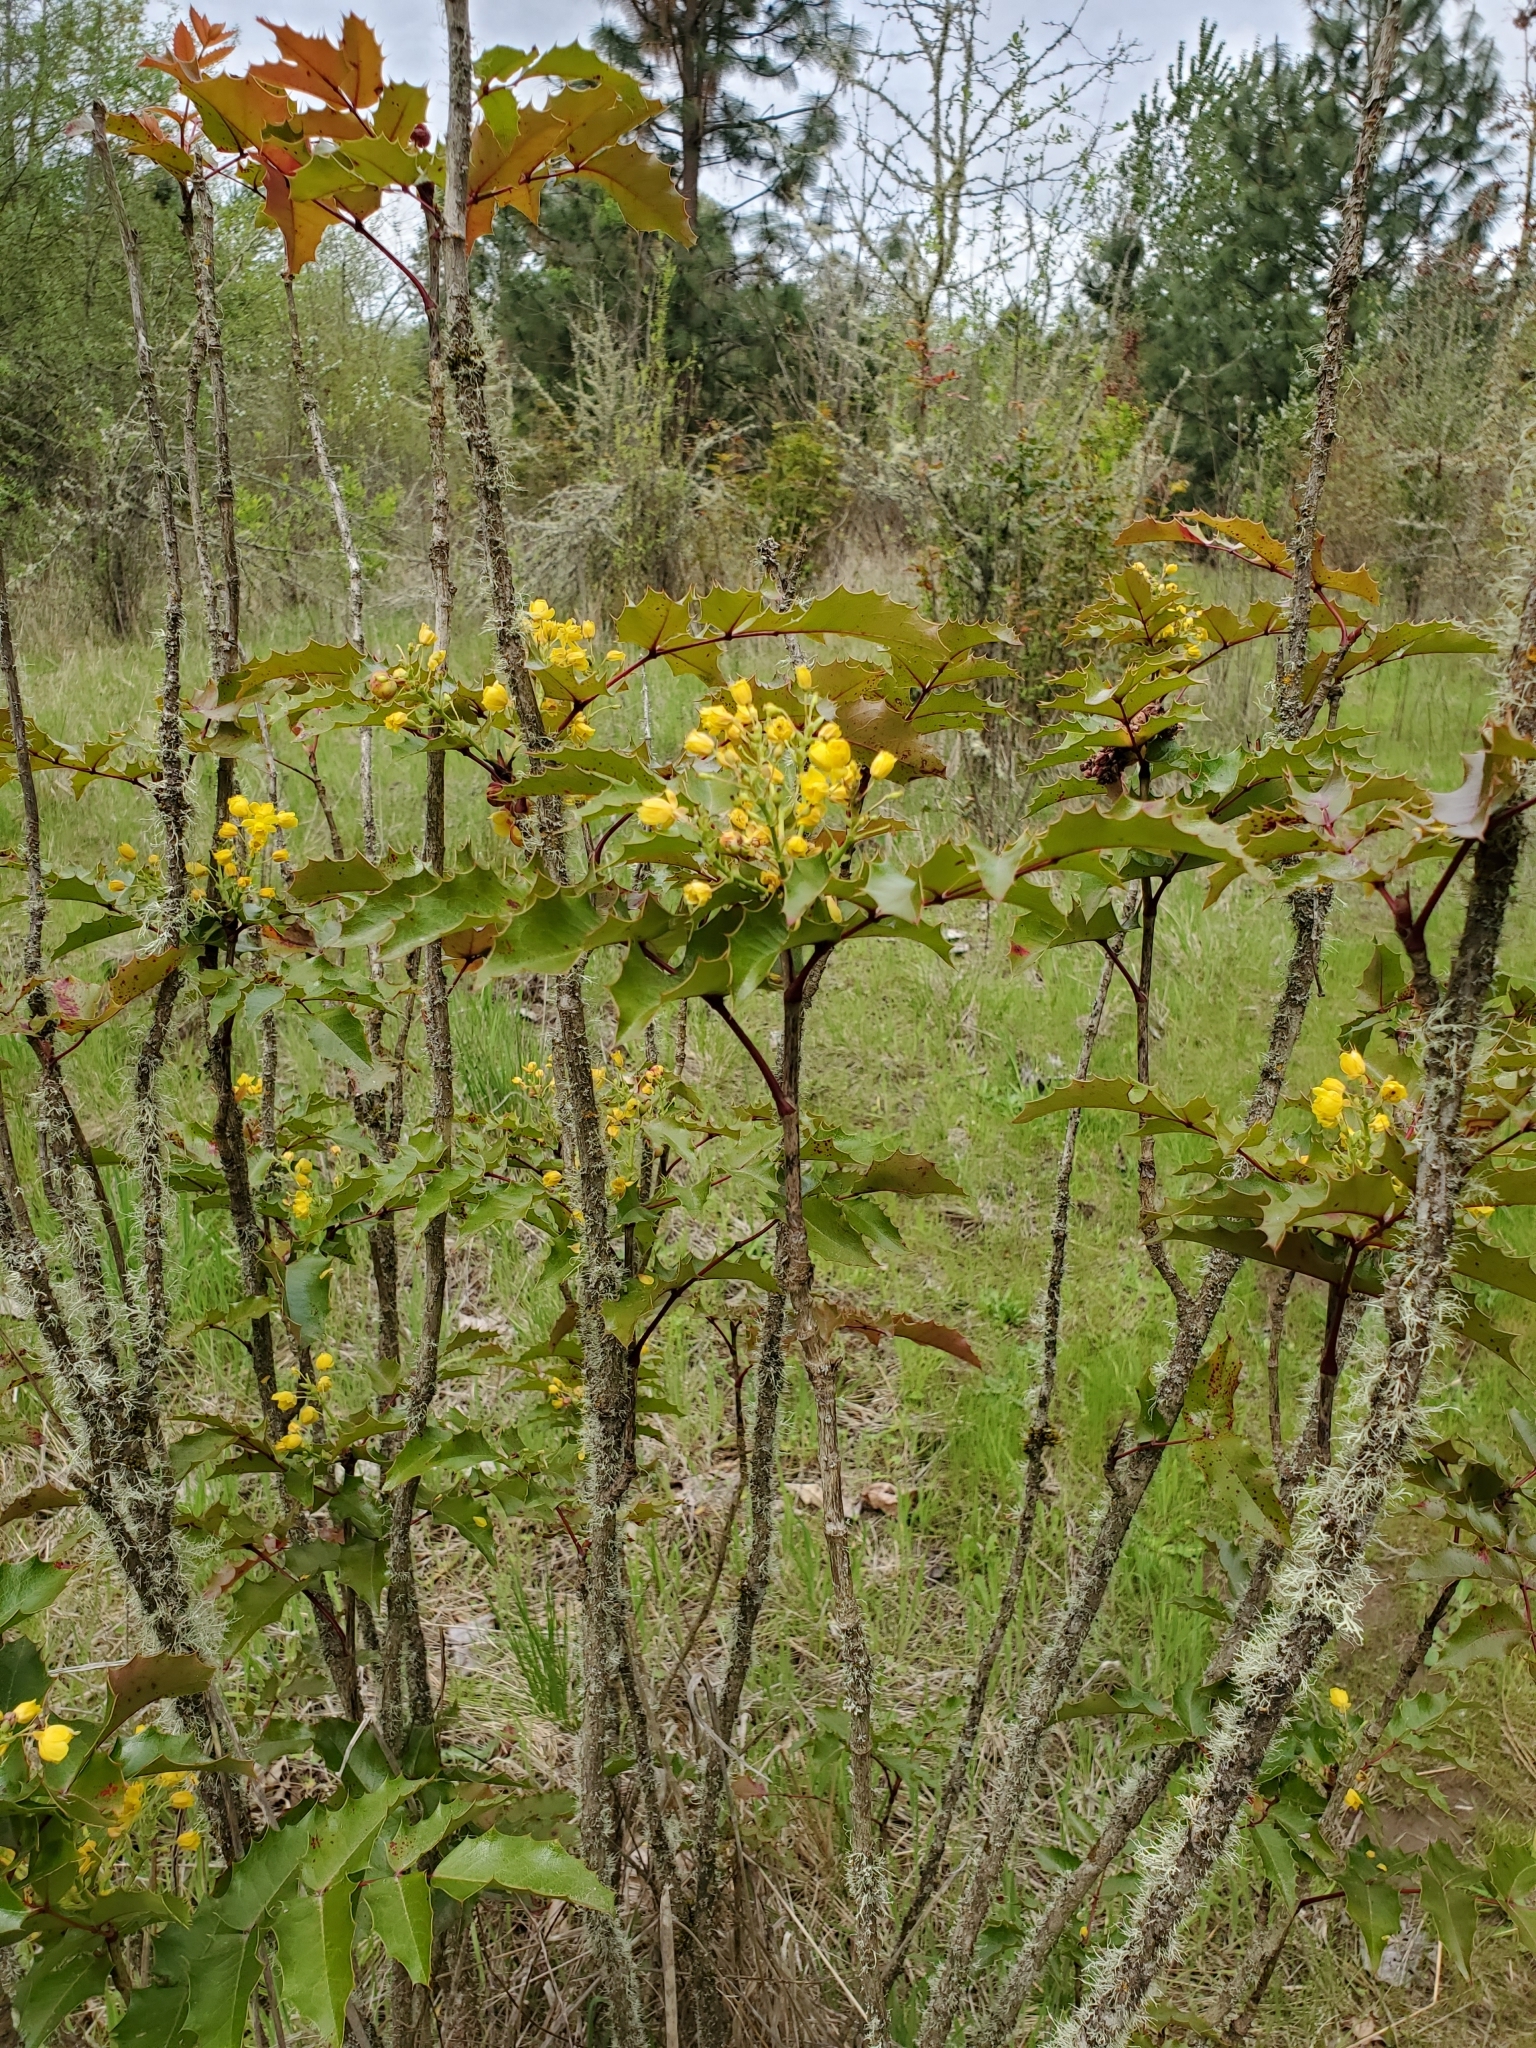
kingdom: Plantae
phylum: Tracheophyta
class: Magnoliopsida
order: Ranunculales
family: Berberidaceae
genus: Mahonia
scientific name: Mahonia aquifolium
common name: Oregon-grape
